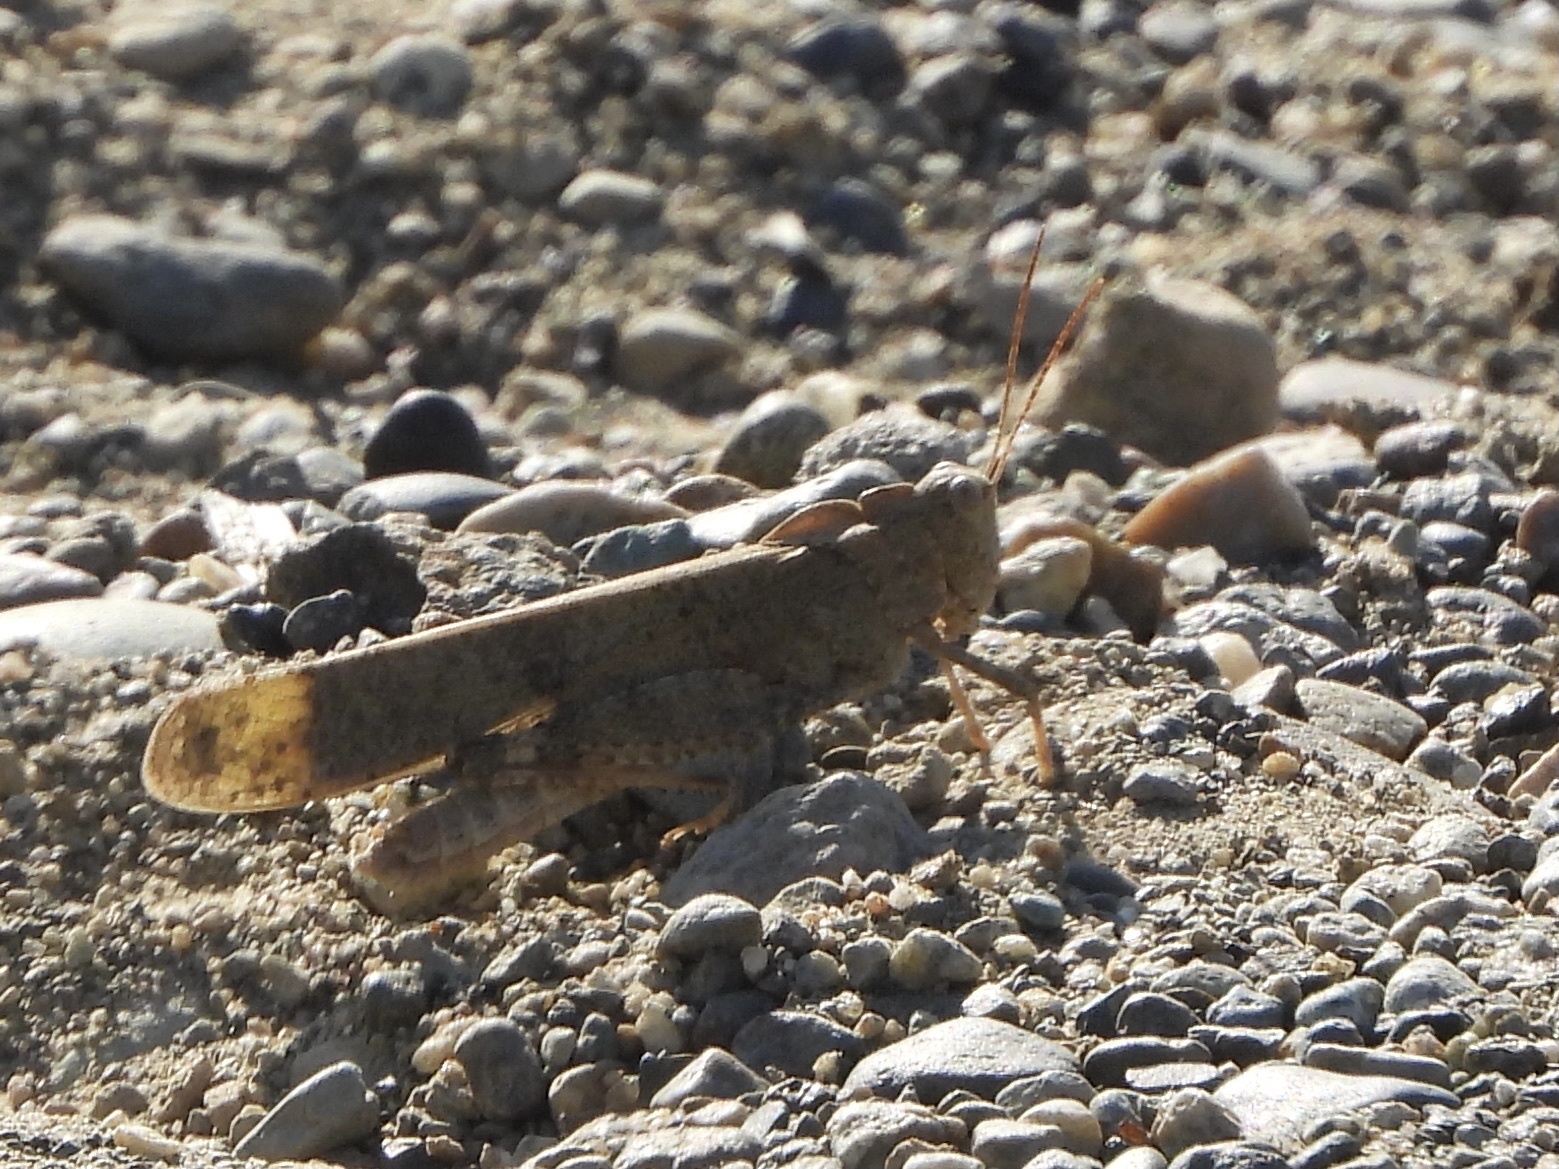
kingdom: Animalia
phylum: Arthropoda
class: Insecta
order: Orthoptera
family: Acrididae
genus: Dissosteira
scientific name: Dissosteira carolina
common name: Carolina grasshopper
